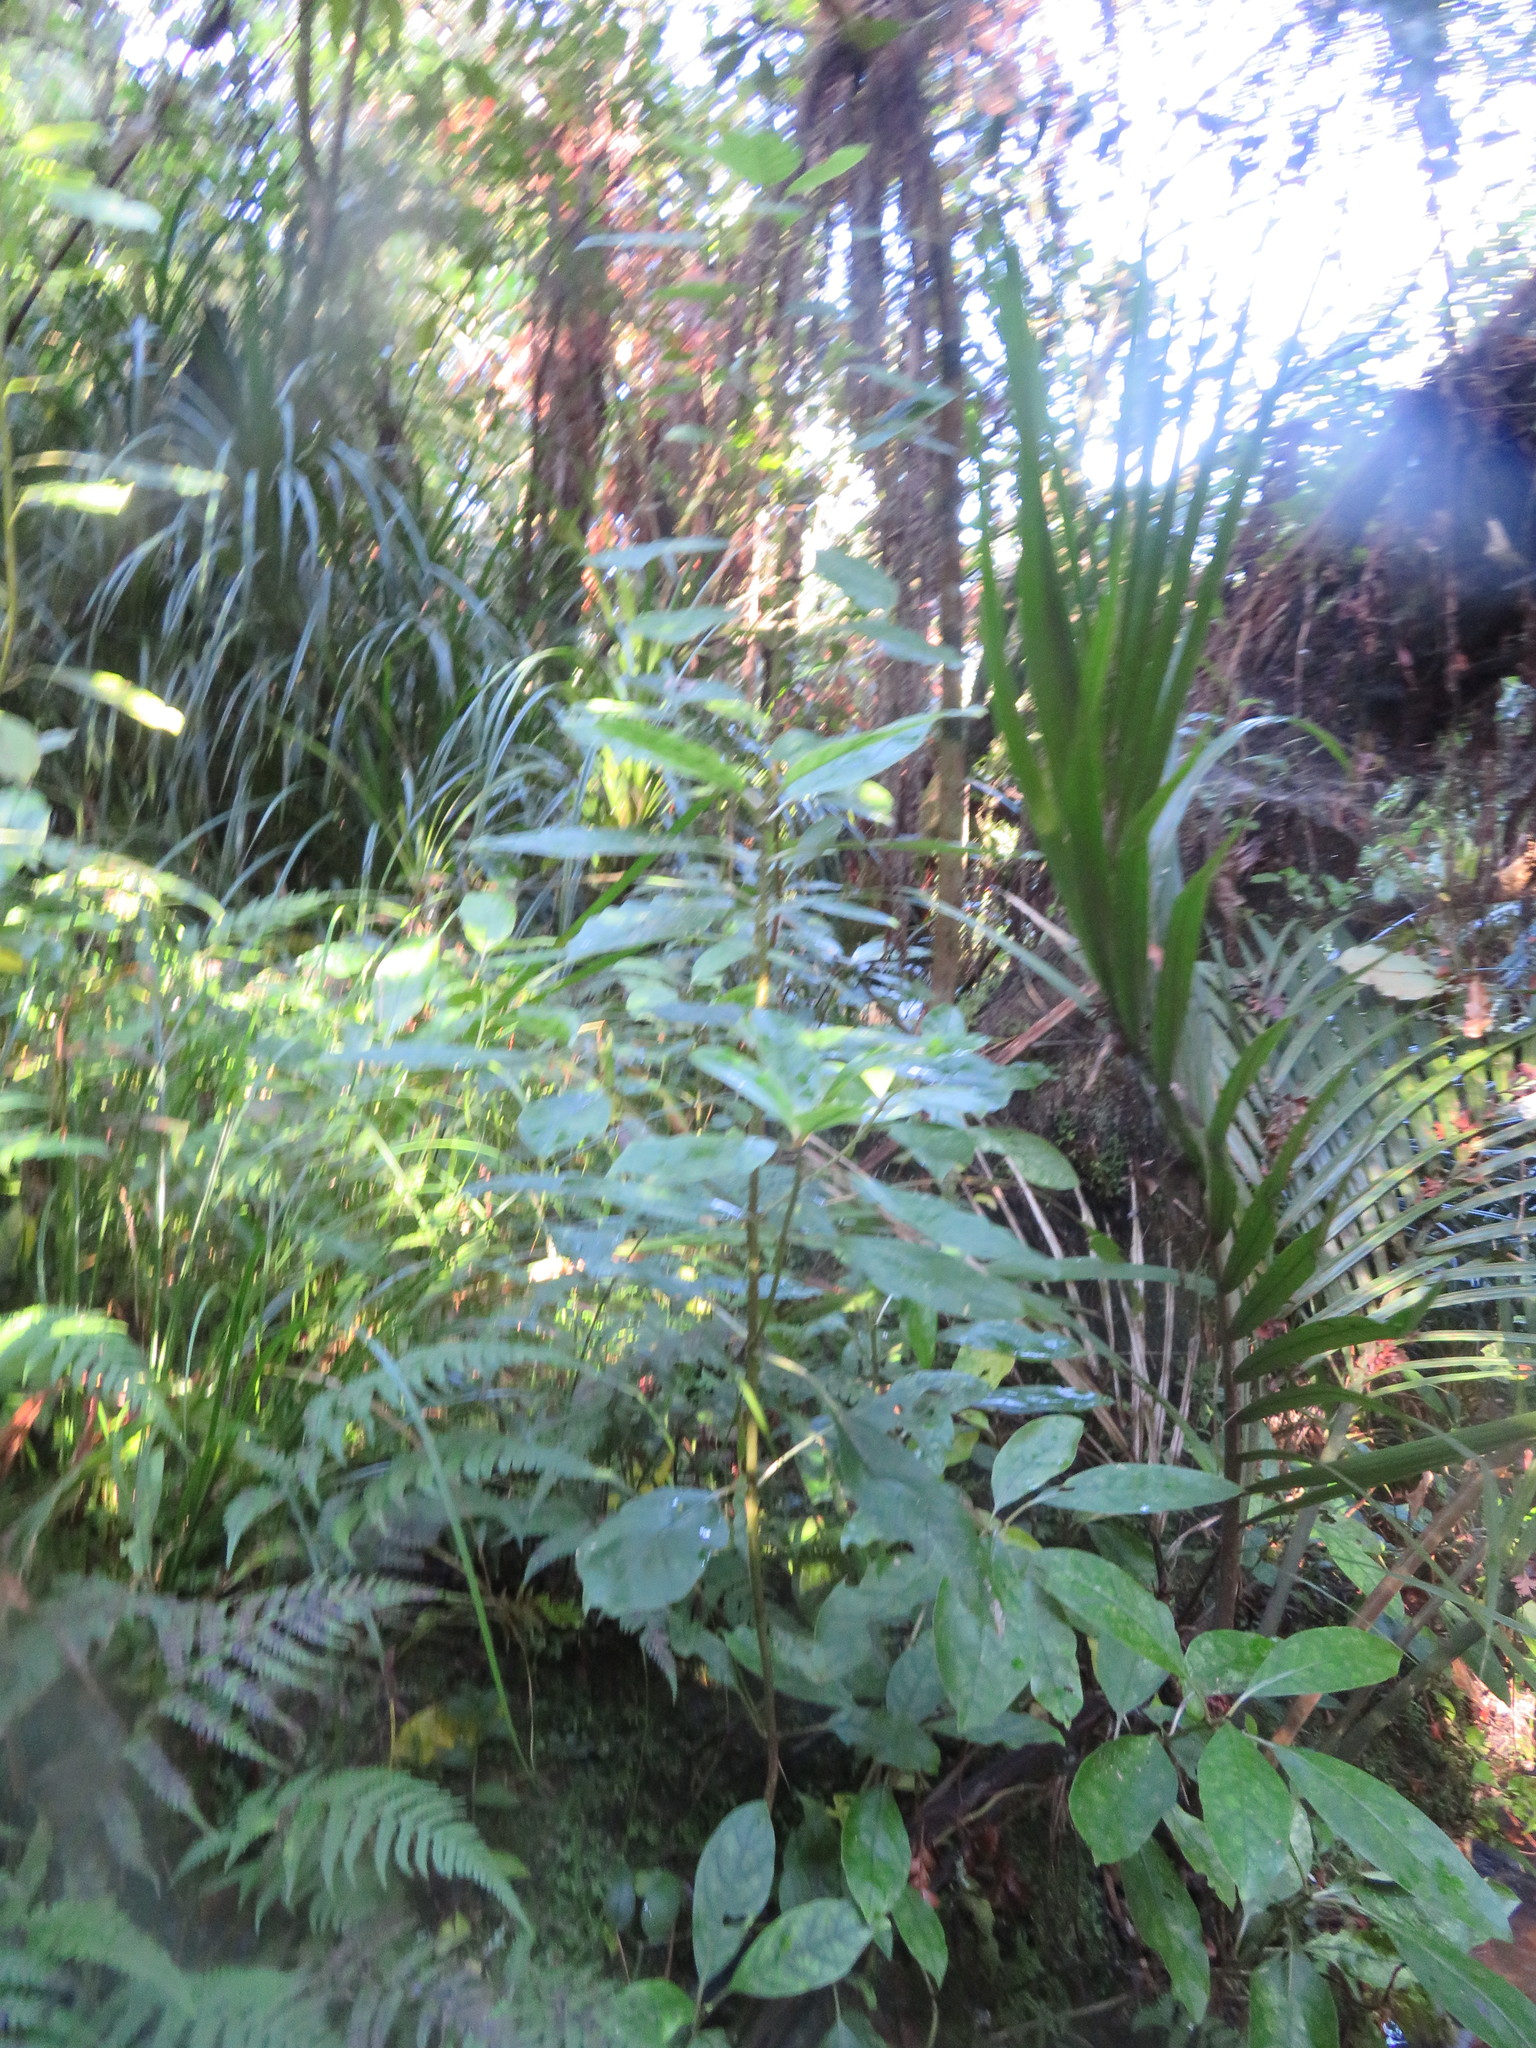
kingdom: Plantae
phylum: Tracheophyta
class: Magnoliopsida
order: Gentianales
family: Rubiaceae
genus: Coprosma
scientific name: Coprosma autumnalis
